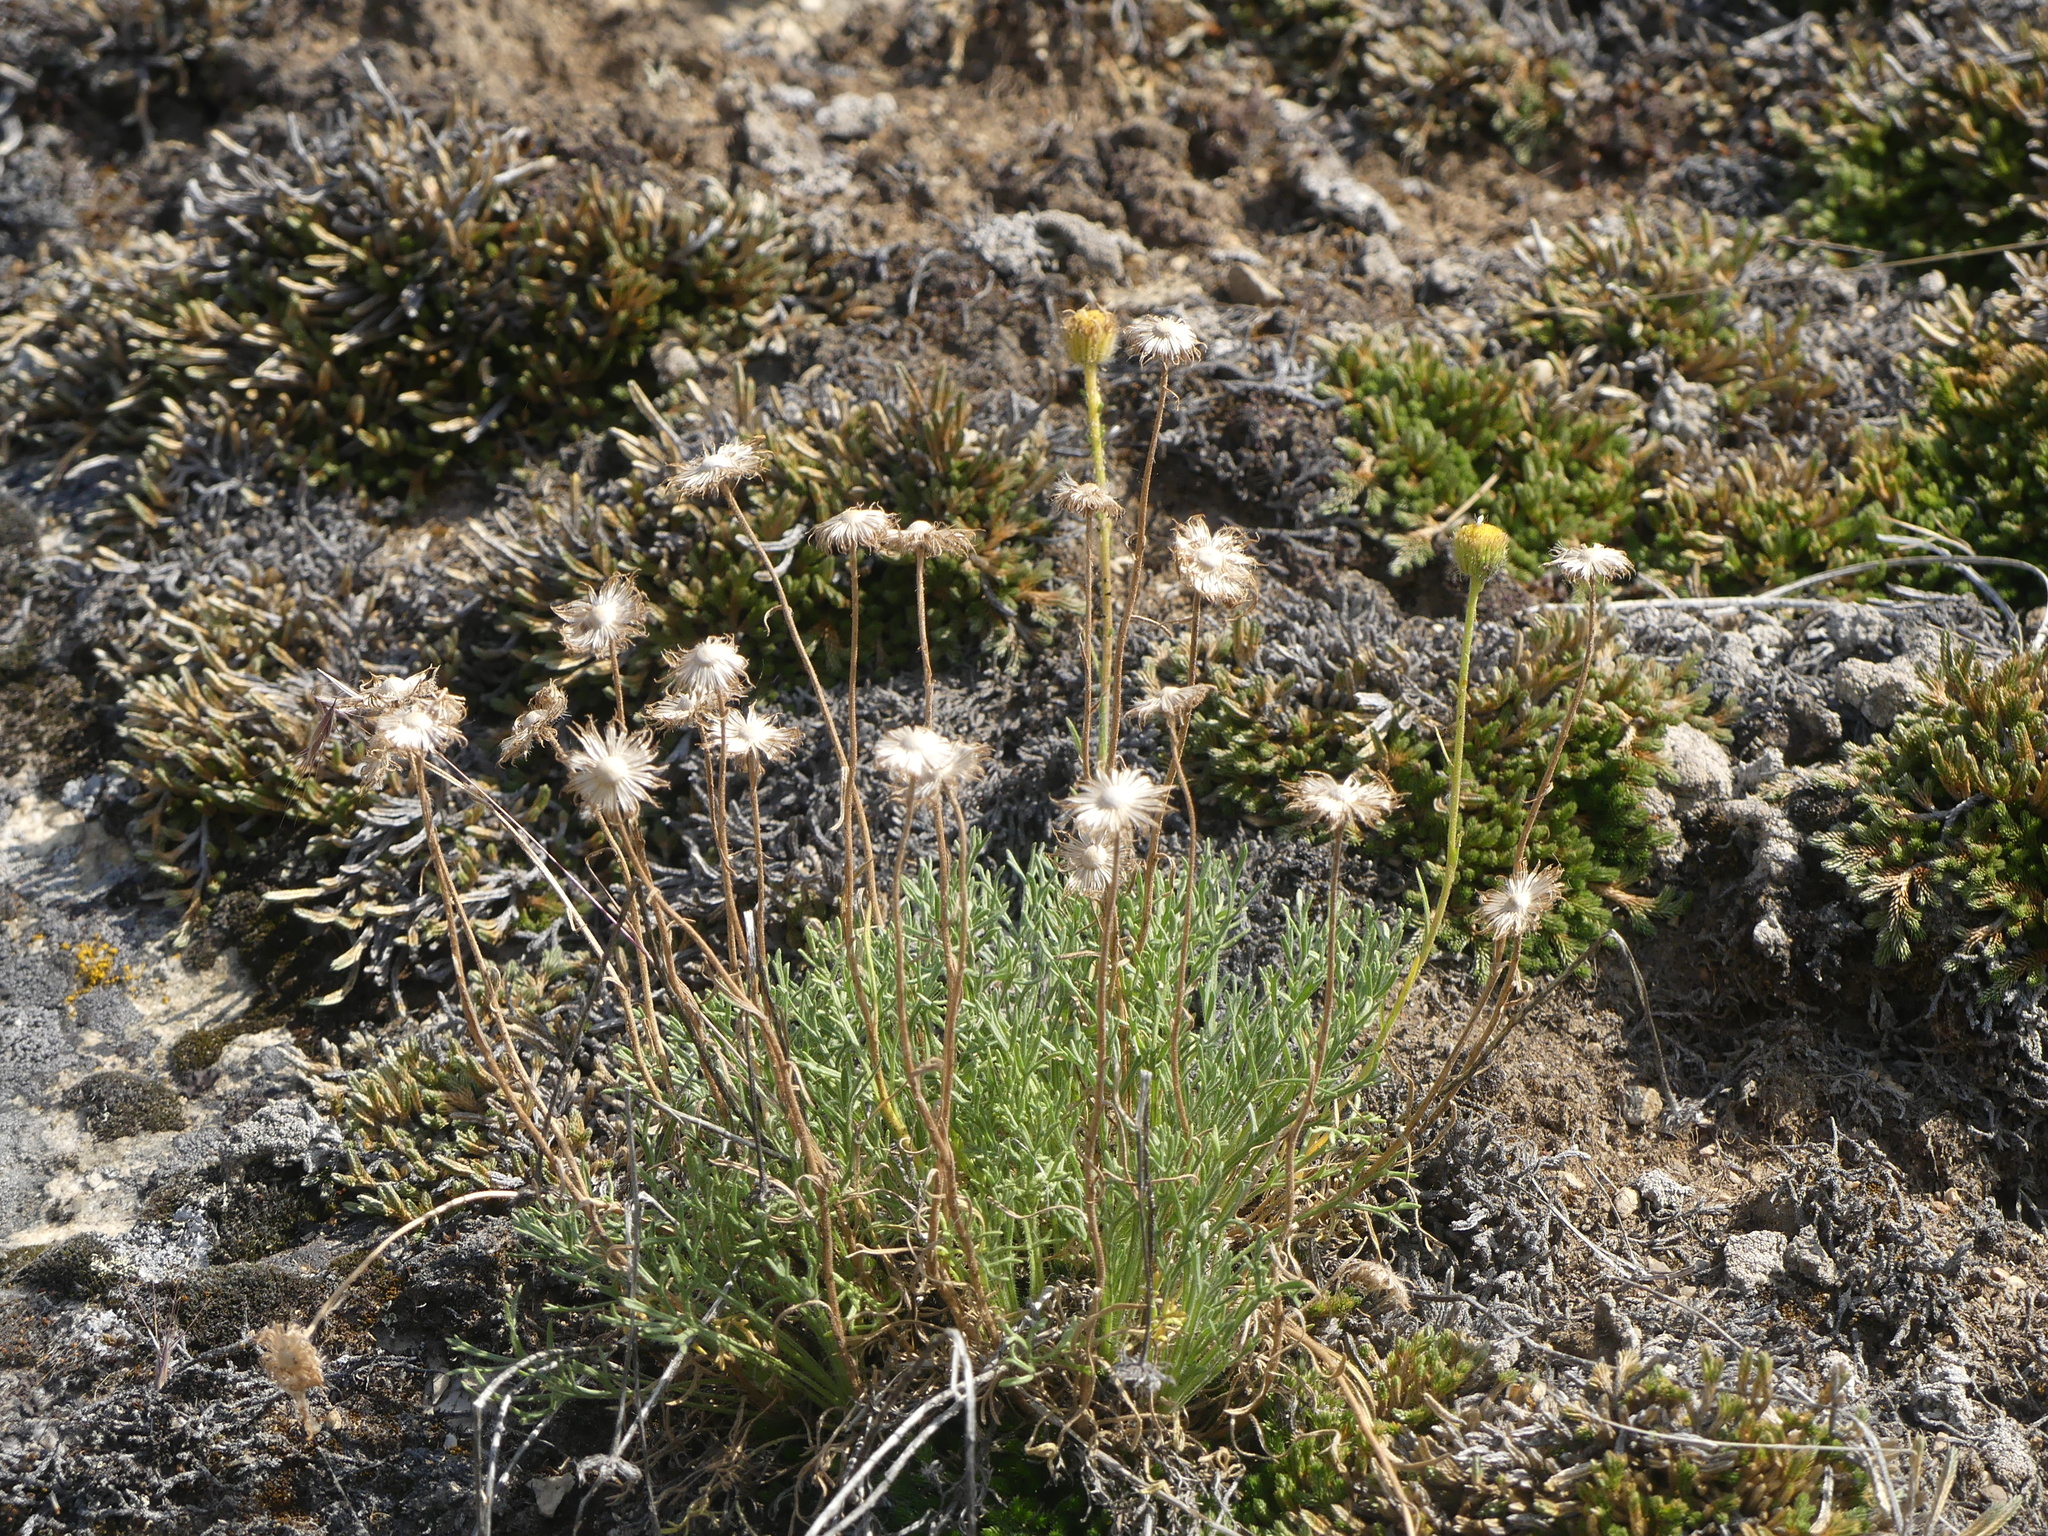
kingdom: Plantae
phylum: Tracheophyta
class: Magnoliopsida
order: Asterales
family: Asteraceae
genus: Erigeron
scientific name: Erigeron compositus
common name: Dwarf mountain fleabane
